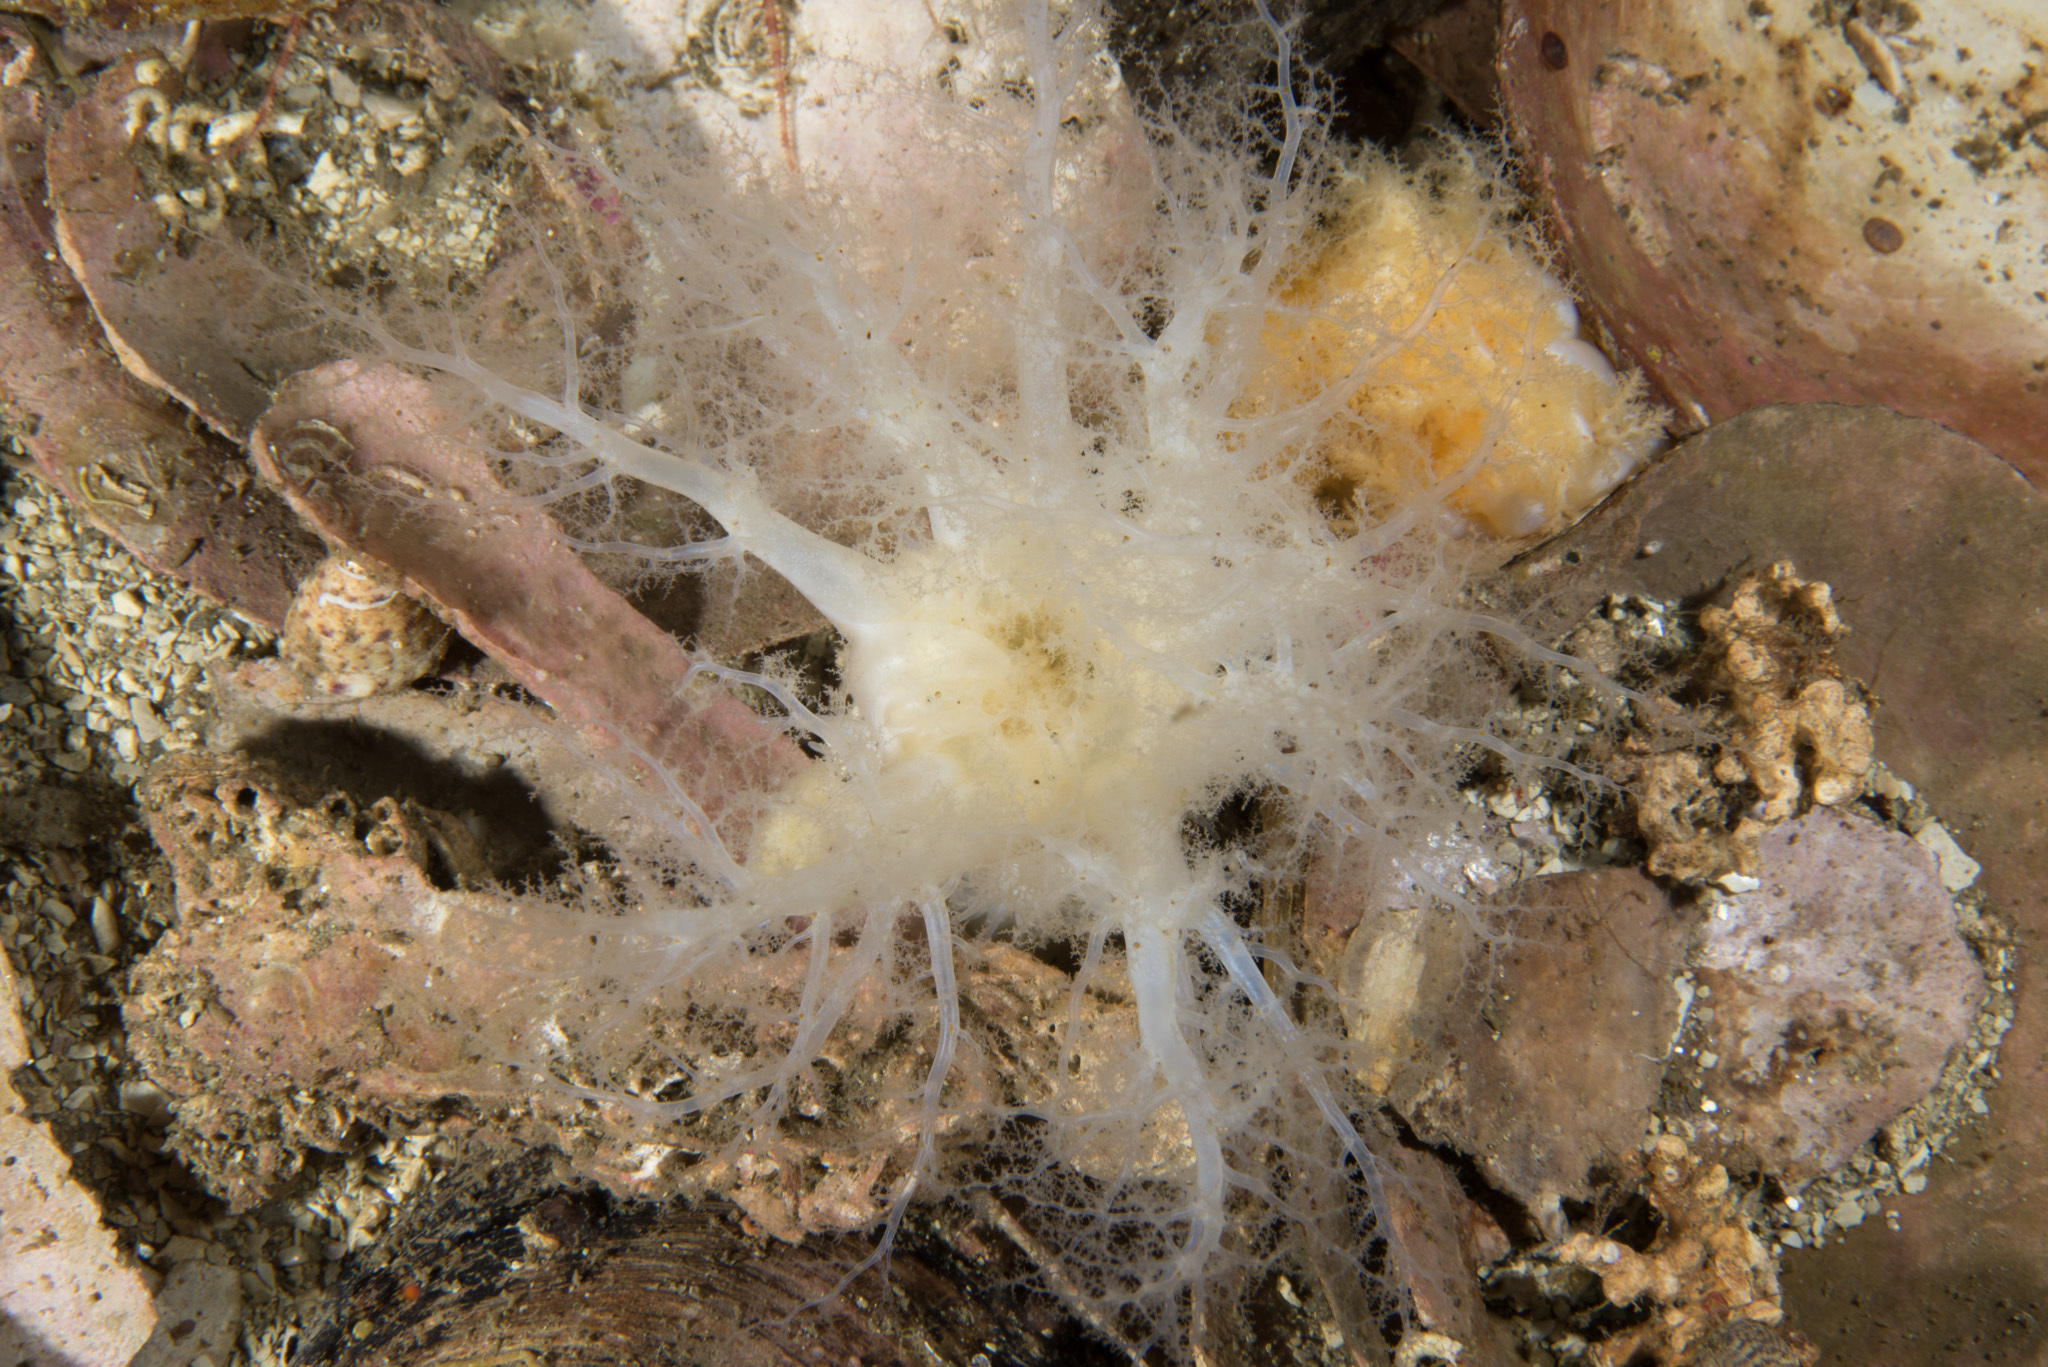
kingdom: Animalia
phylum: Echinodermata
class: Holothuroidea
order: Dendrochirotida
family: Phyllophoridae
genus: Neopentadactyla
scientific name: Neopentadactyla mixta
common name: Gravel sea cucumber
